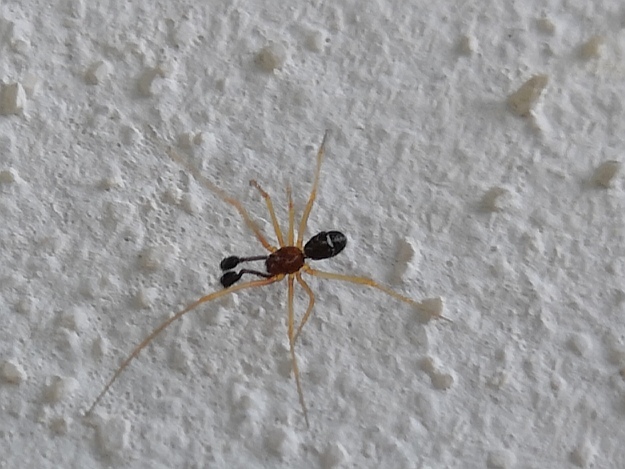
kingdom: Animalia
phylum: Arthropoda
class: Arachnida
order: Araneae
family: Theridiidae
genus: Neottiura
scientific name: Neottiura bimaculata
